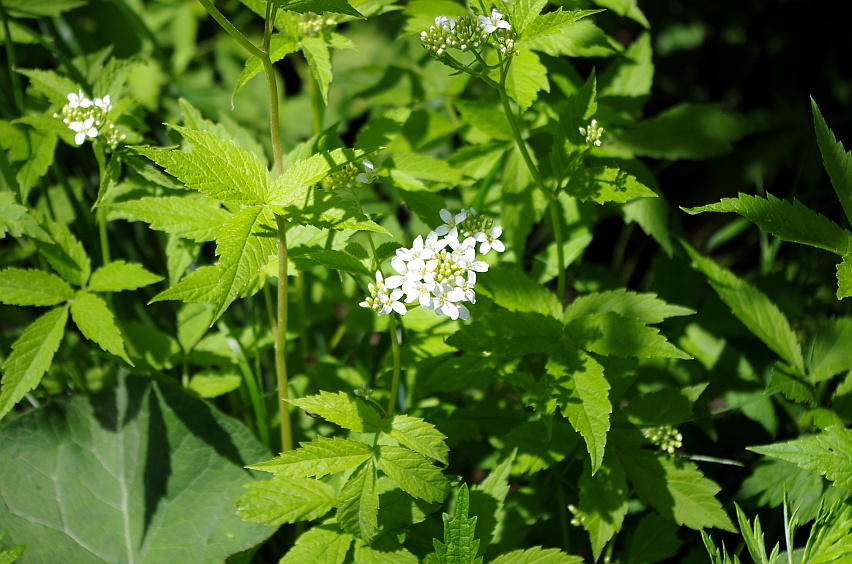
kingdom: Plantae
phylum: Tracheophyta
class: Magnoliopsida
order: Brassicales
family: Brassicaceae
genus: Cardamine
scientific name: Cardamine leucantha
